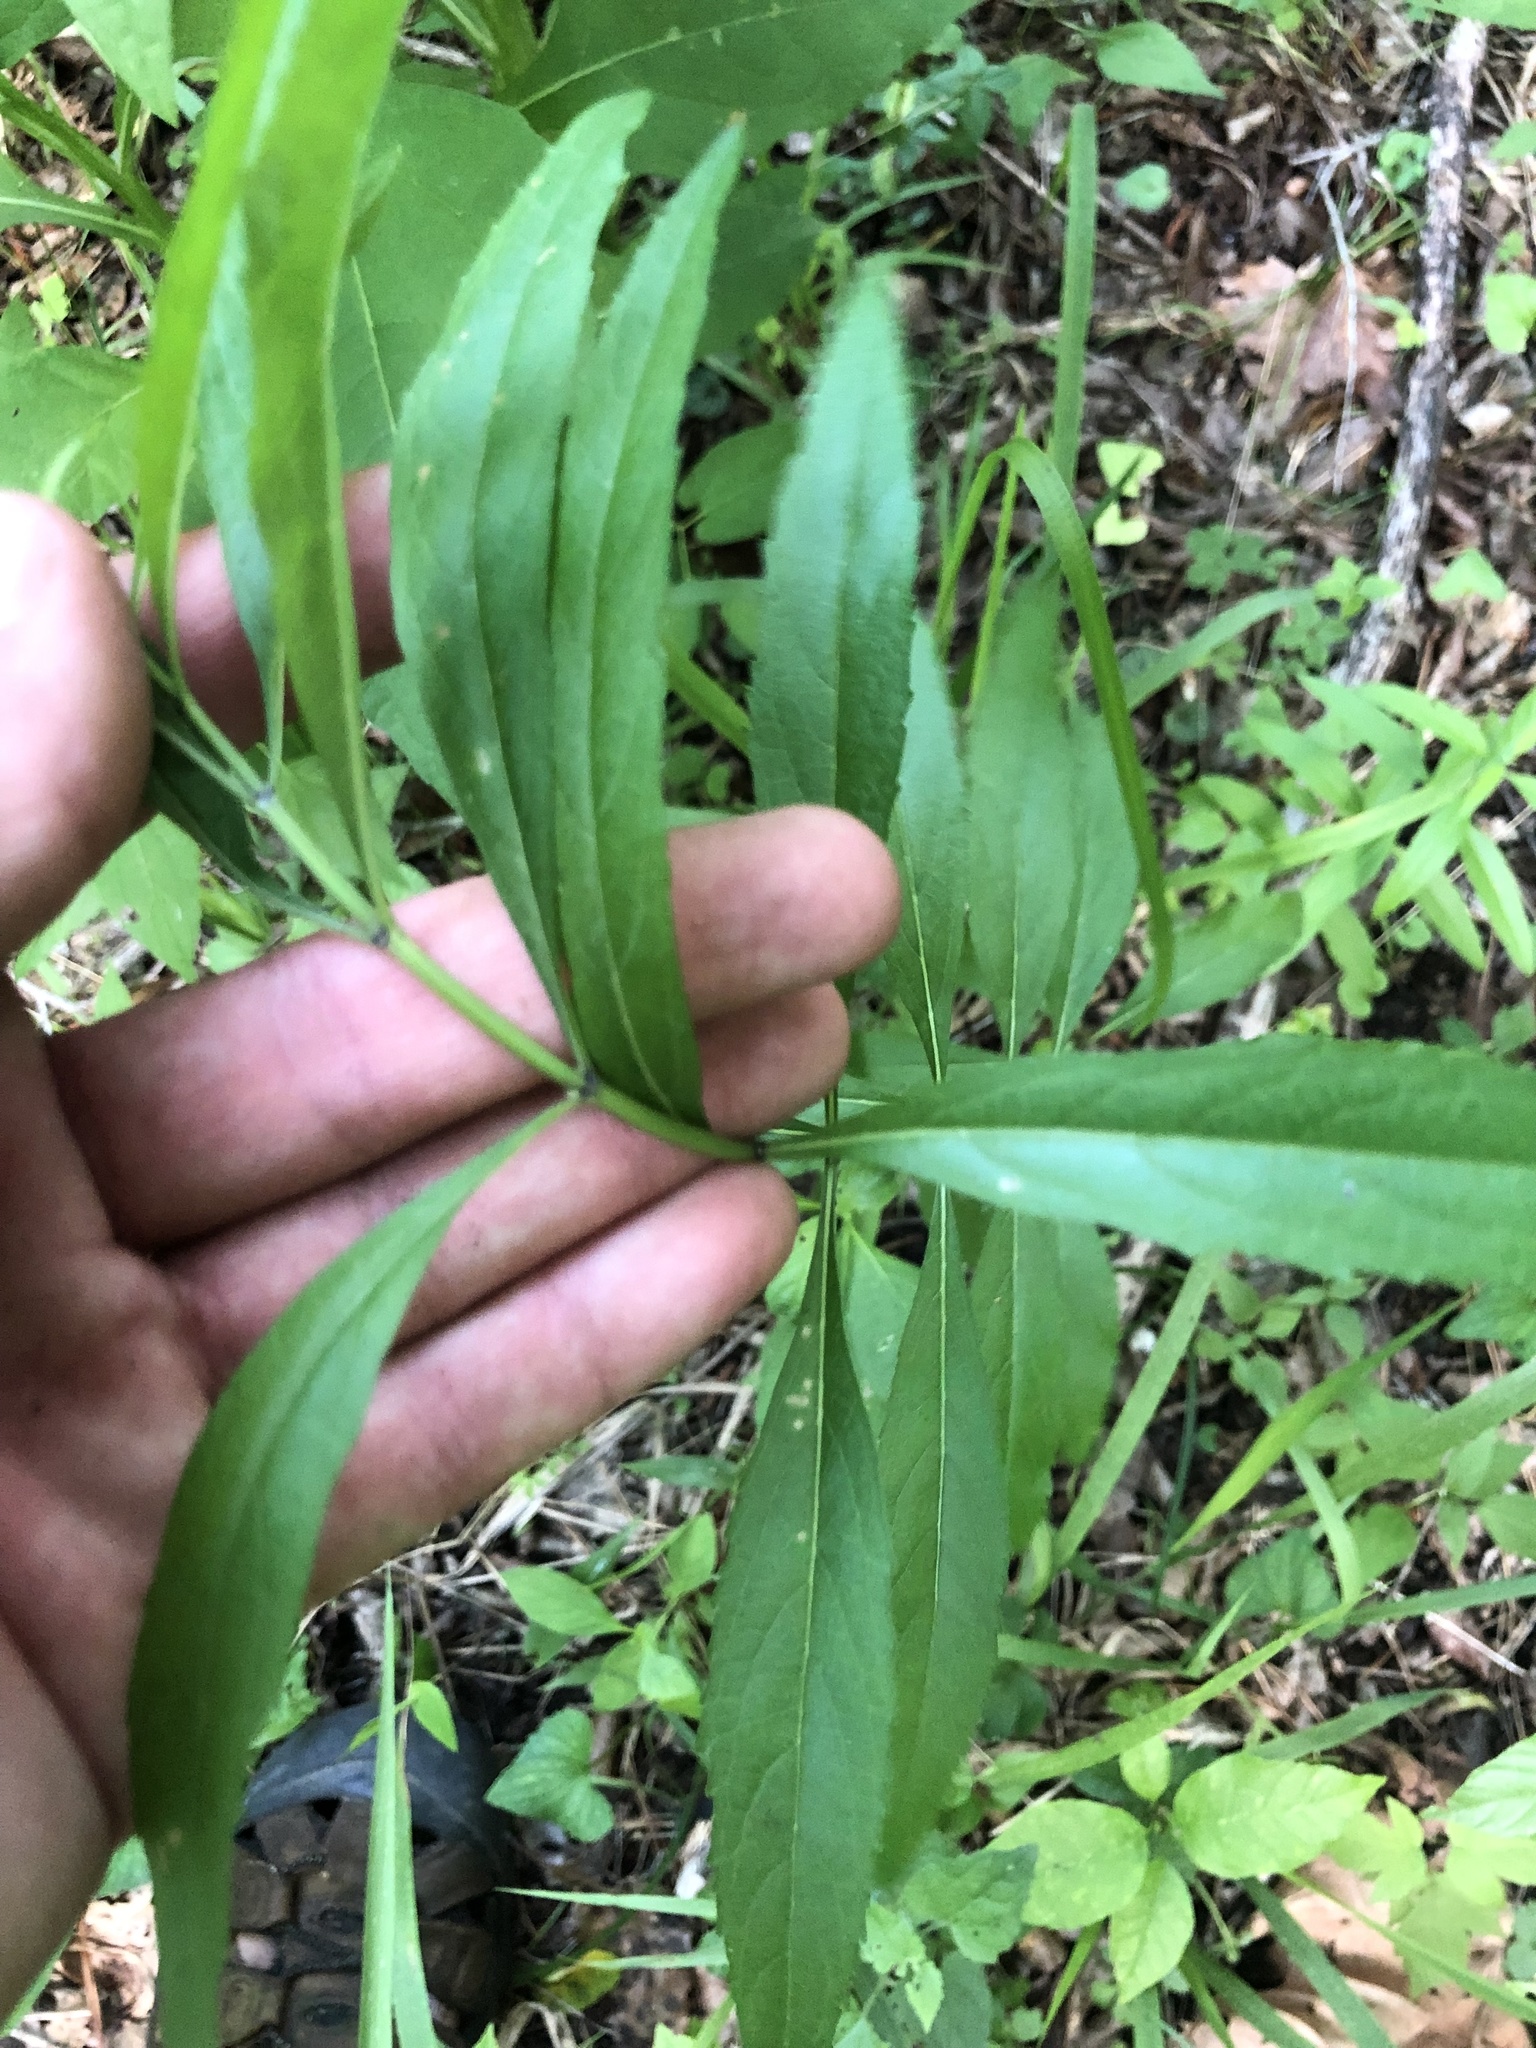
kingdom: Plantae
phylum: Tracheophyta
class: Magnoliopsida
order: Lamiales
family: Lamiaceae
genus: Salvia
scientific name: Salvia azurea
